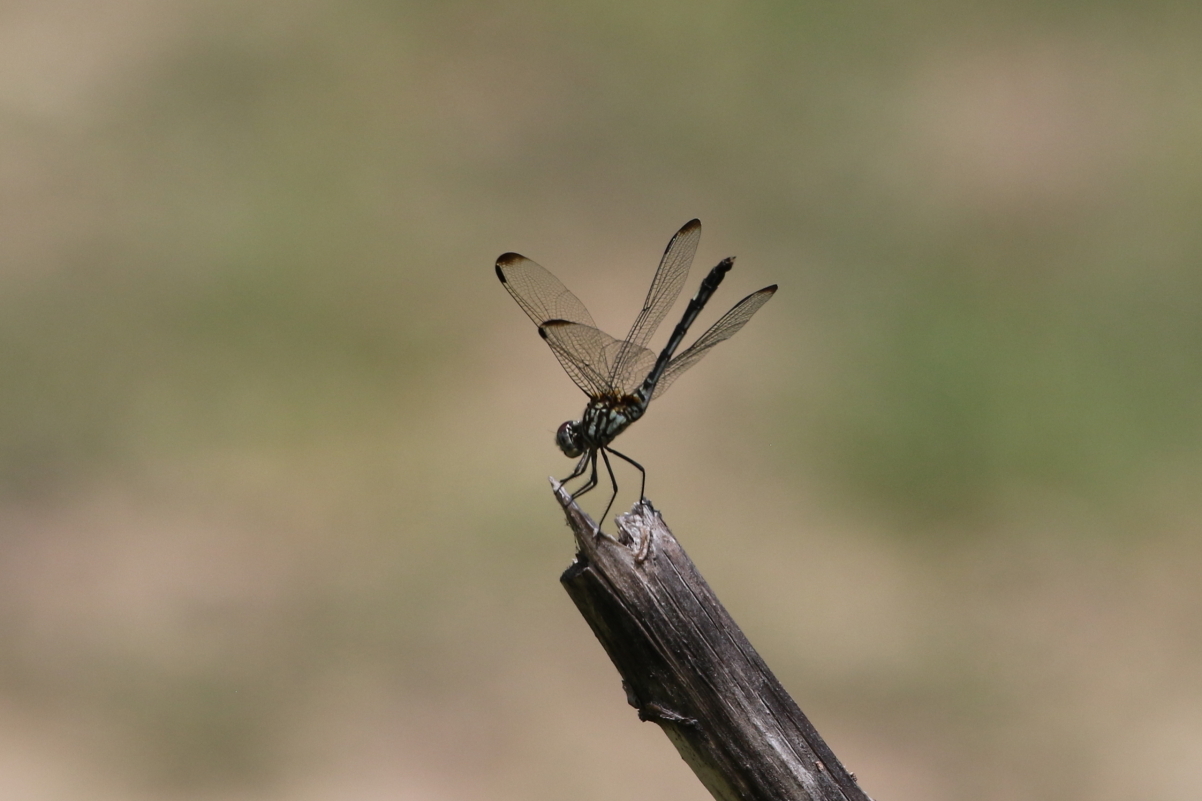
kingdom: Animalia
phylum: Arthropoda
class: Insecta
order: Odonata
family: Libellulidae
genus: Dythemis
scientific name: Dythemis velox
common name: Swift setwing
